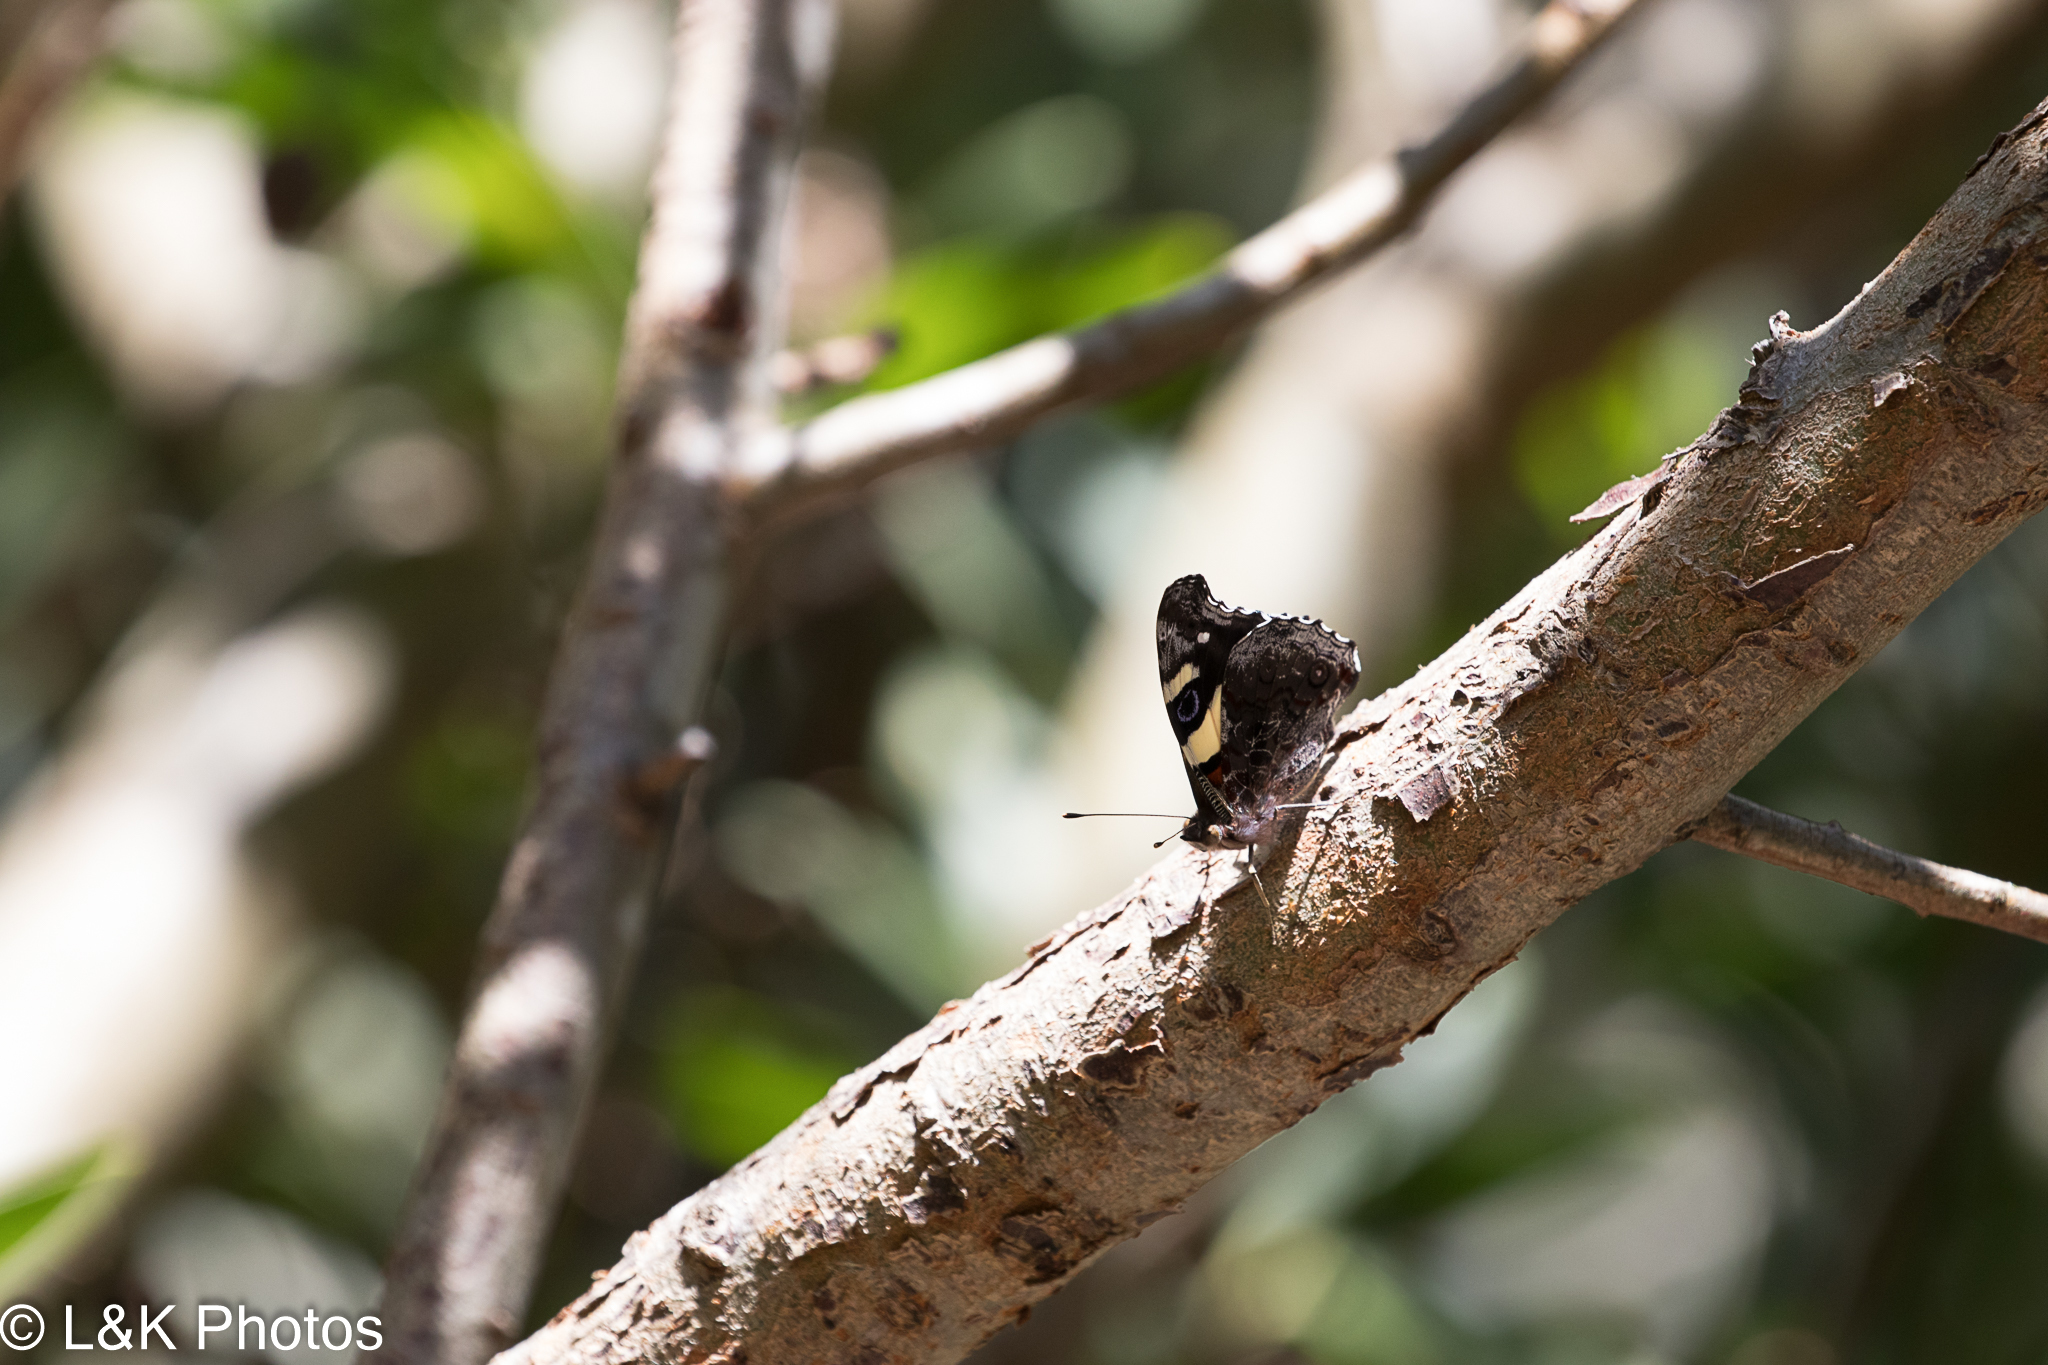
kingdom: Animalia
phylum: Arthropoda
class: Insecta
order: Lepidoptera
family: Nymphalidae
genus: Vanessa
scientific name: Vanessa itea
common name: Yellow admiral
